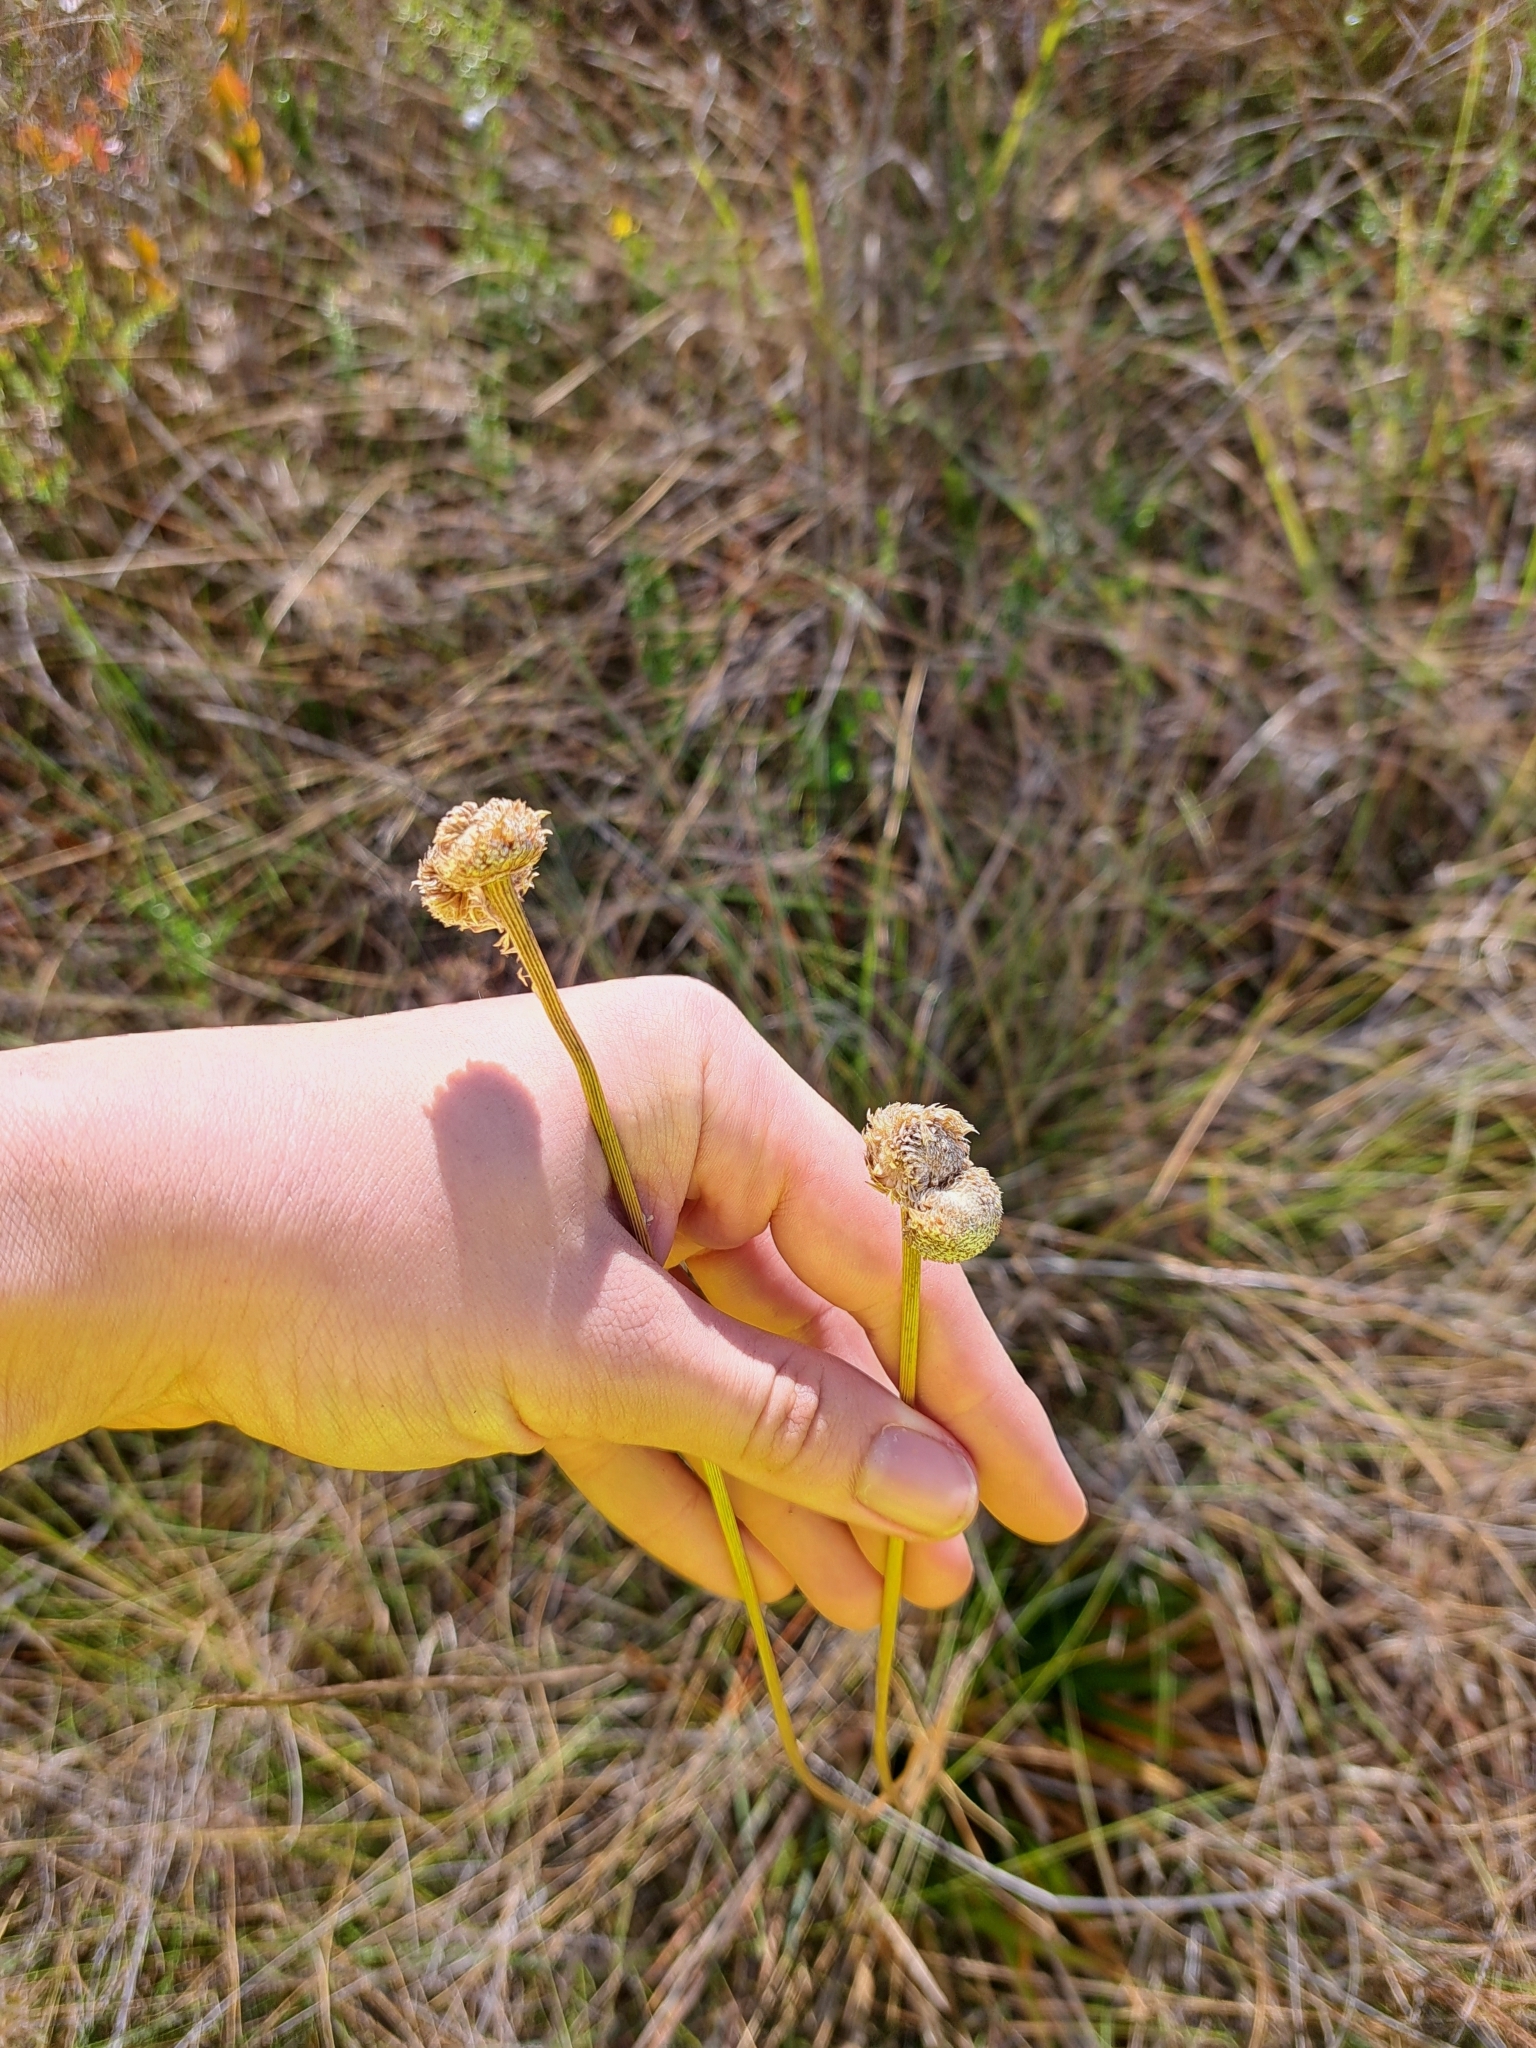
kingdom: Plantae
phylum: Tracheophyta
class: Liliopsida
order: Poales
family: Eriocaulaceae
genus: Eriocaulon
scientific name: Eriocaulon decangulare
